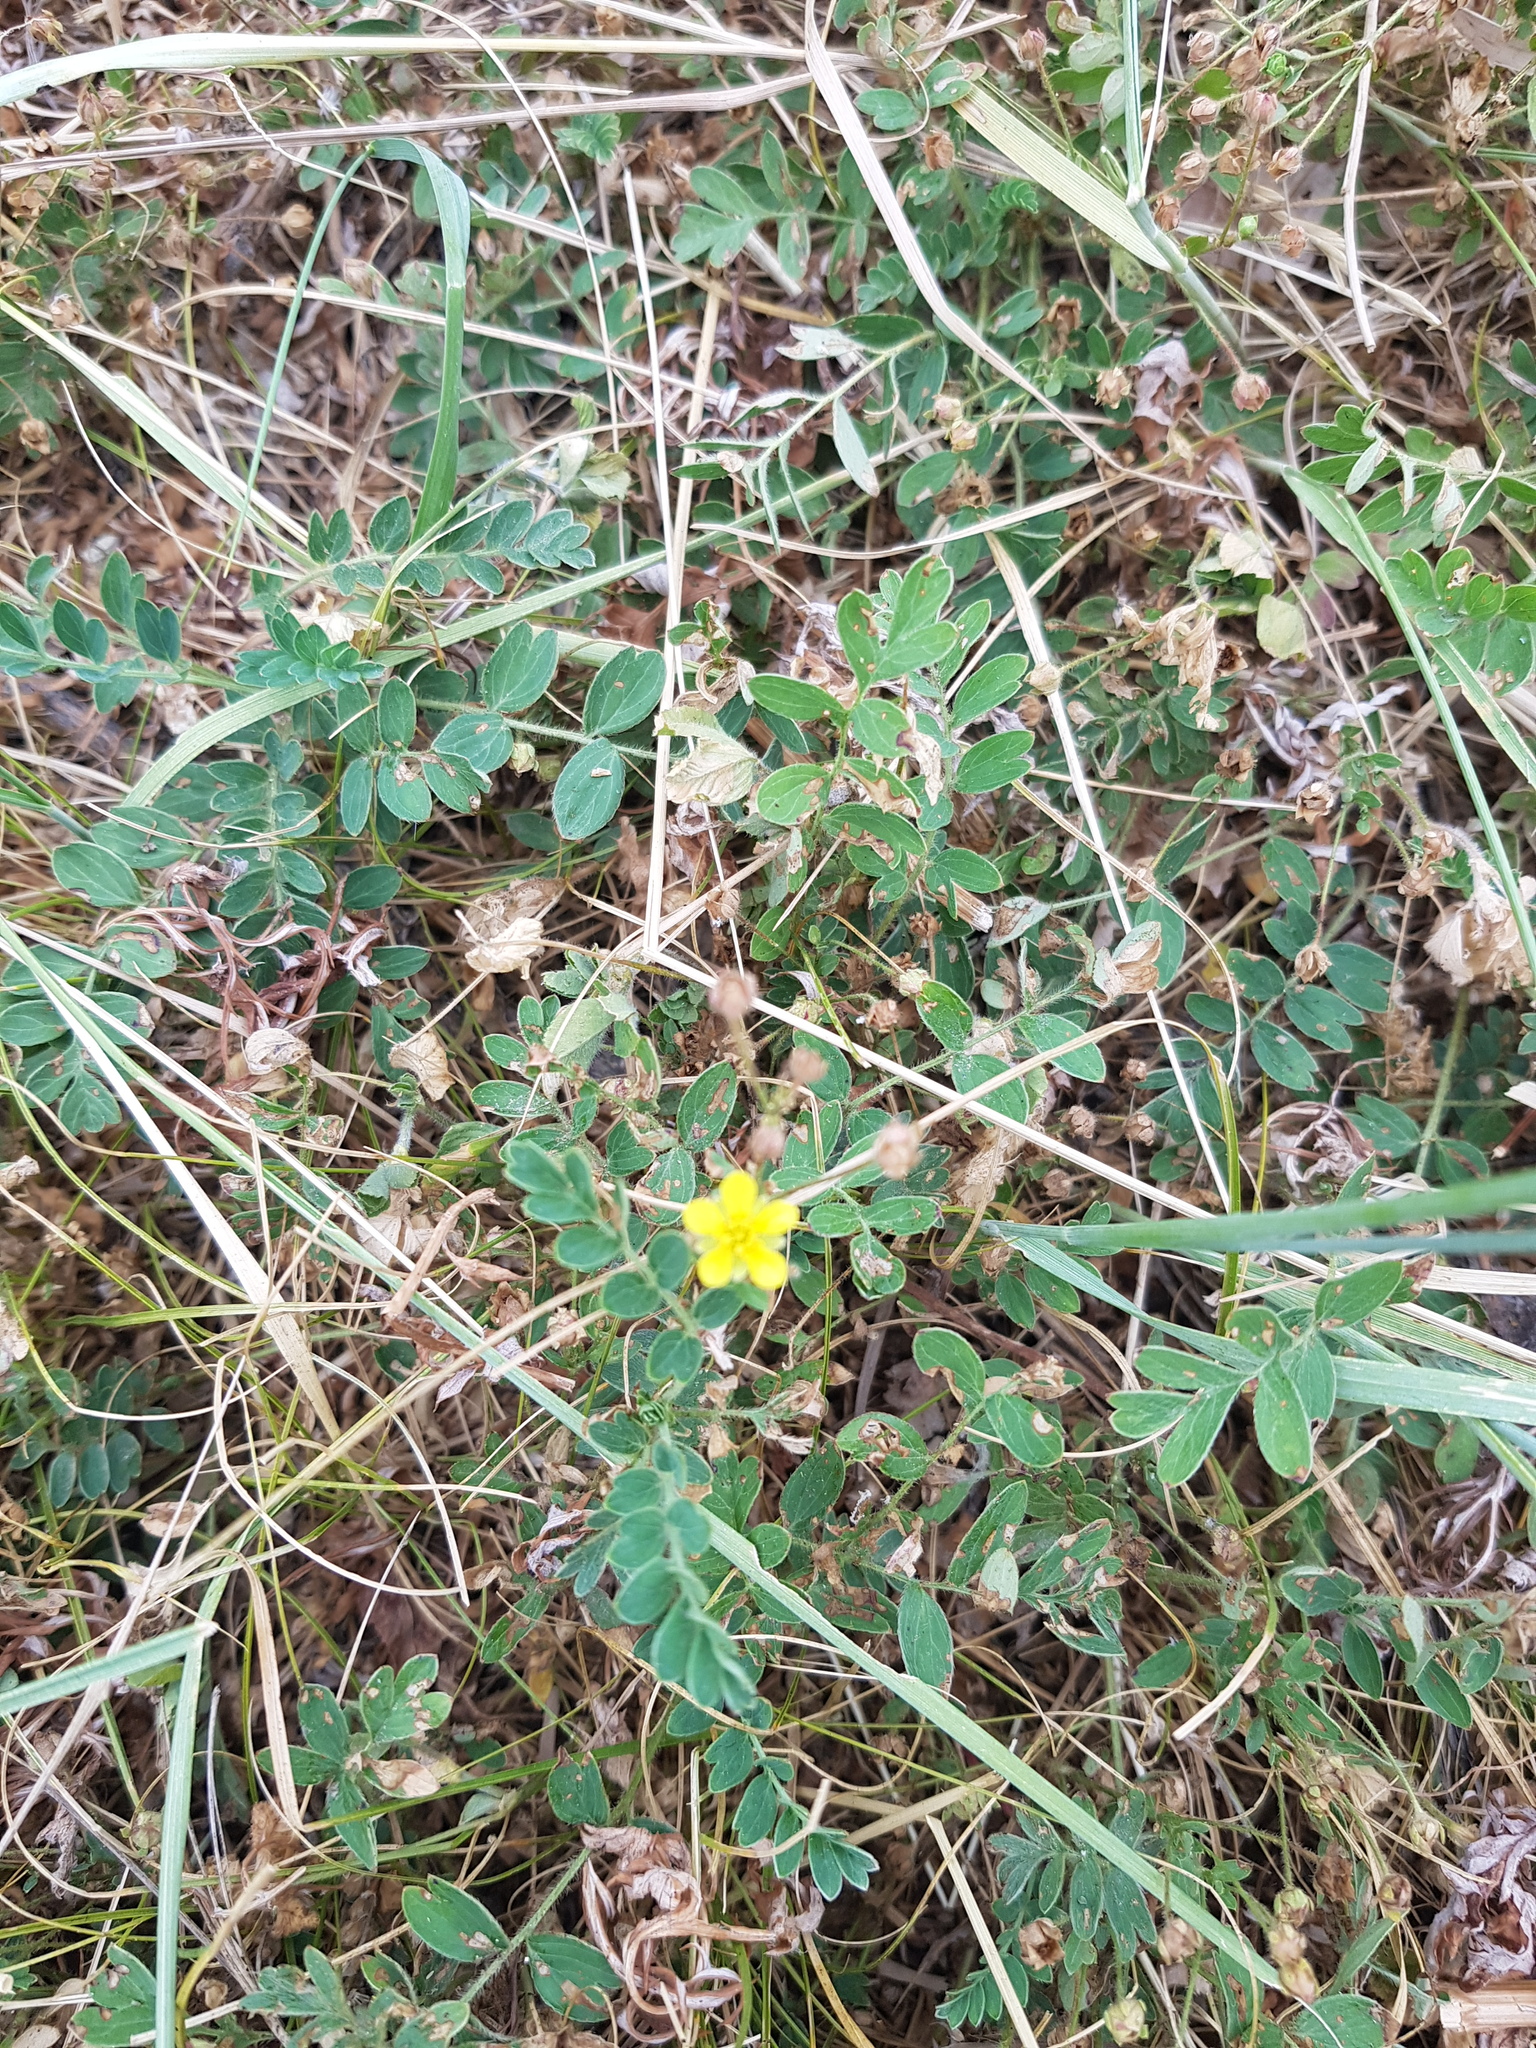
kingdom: Plantae
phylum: Tracheophyta
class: Magnoliopsida
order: Rosales
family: Rosaceae
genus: Sibbaldianthe
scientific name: Sibbaldianthe bifurca
